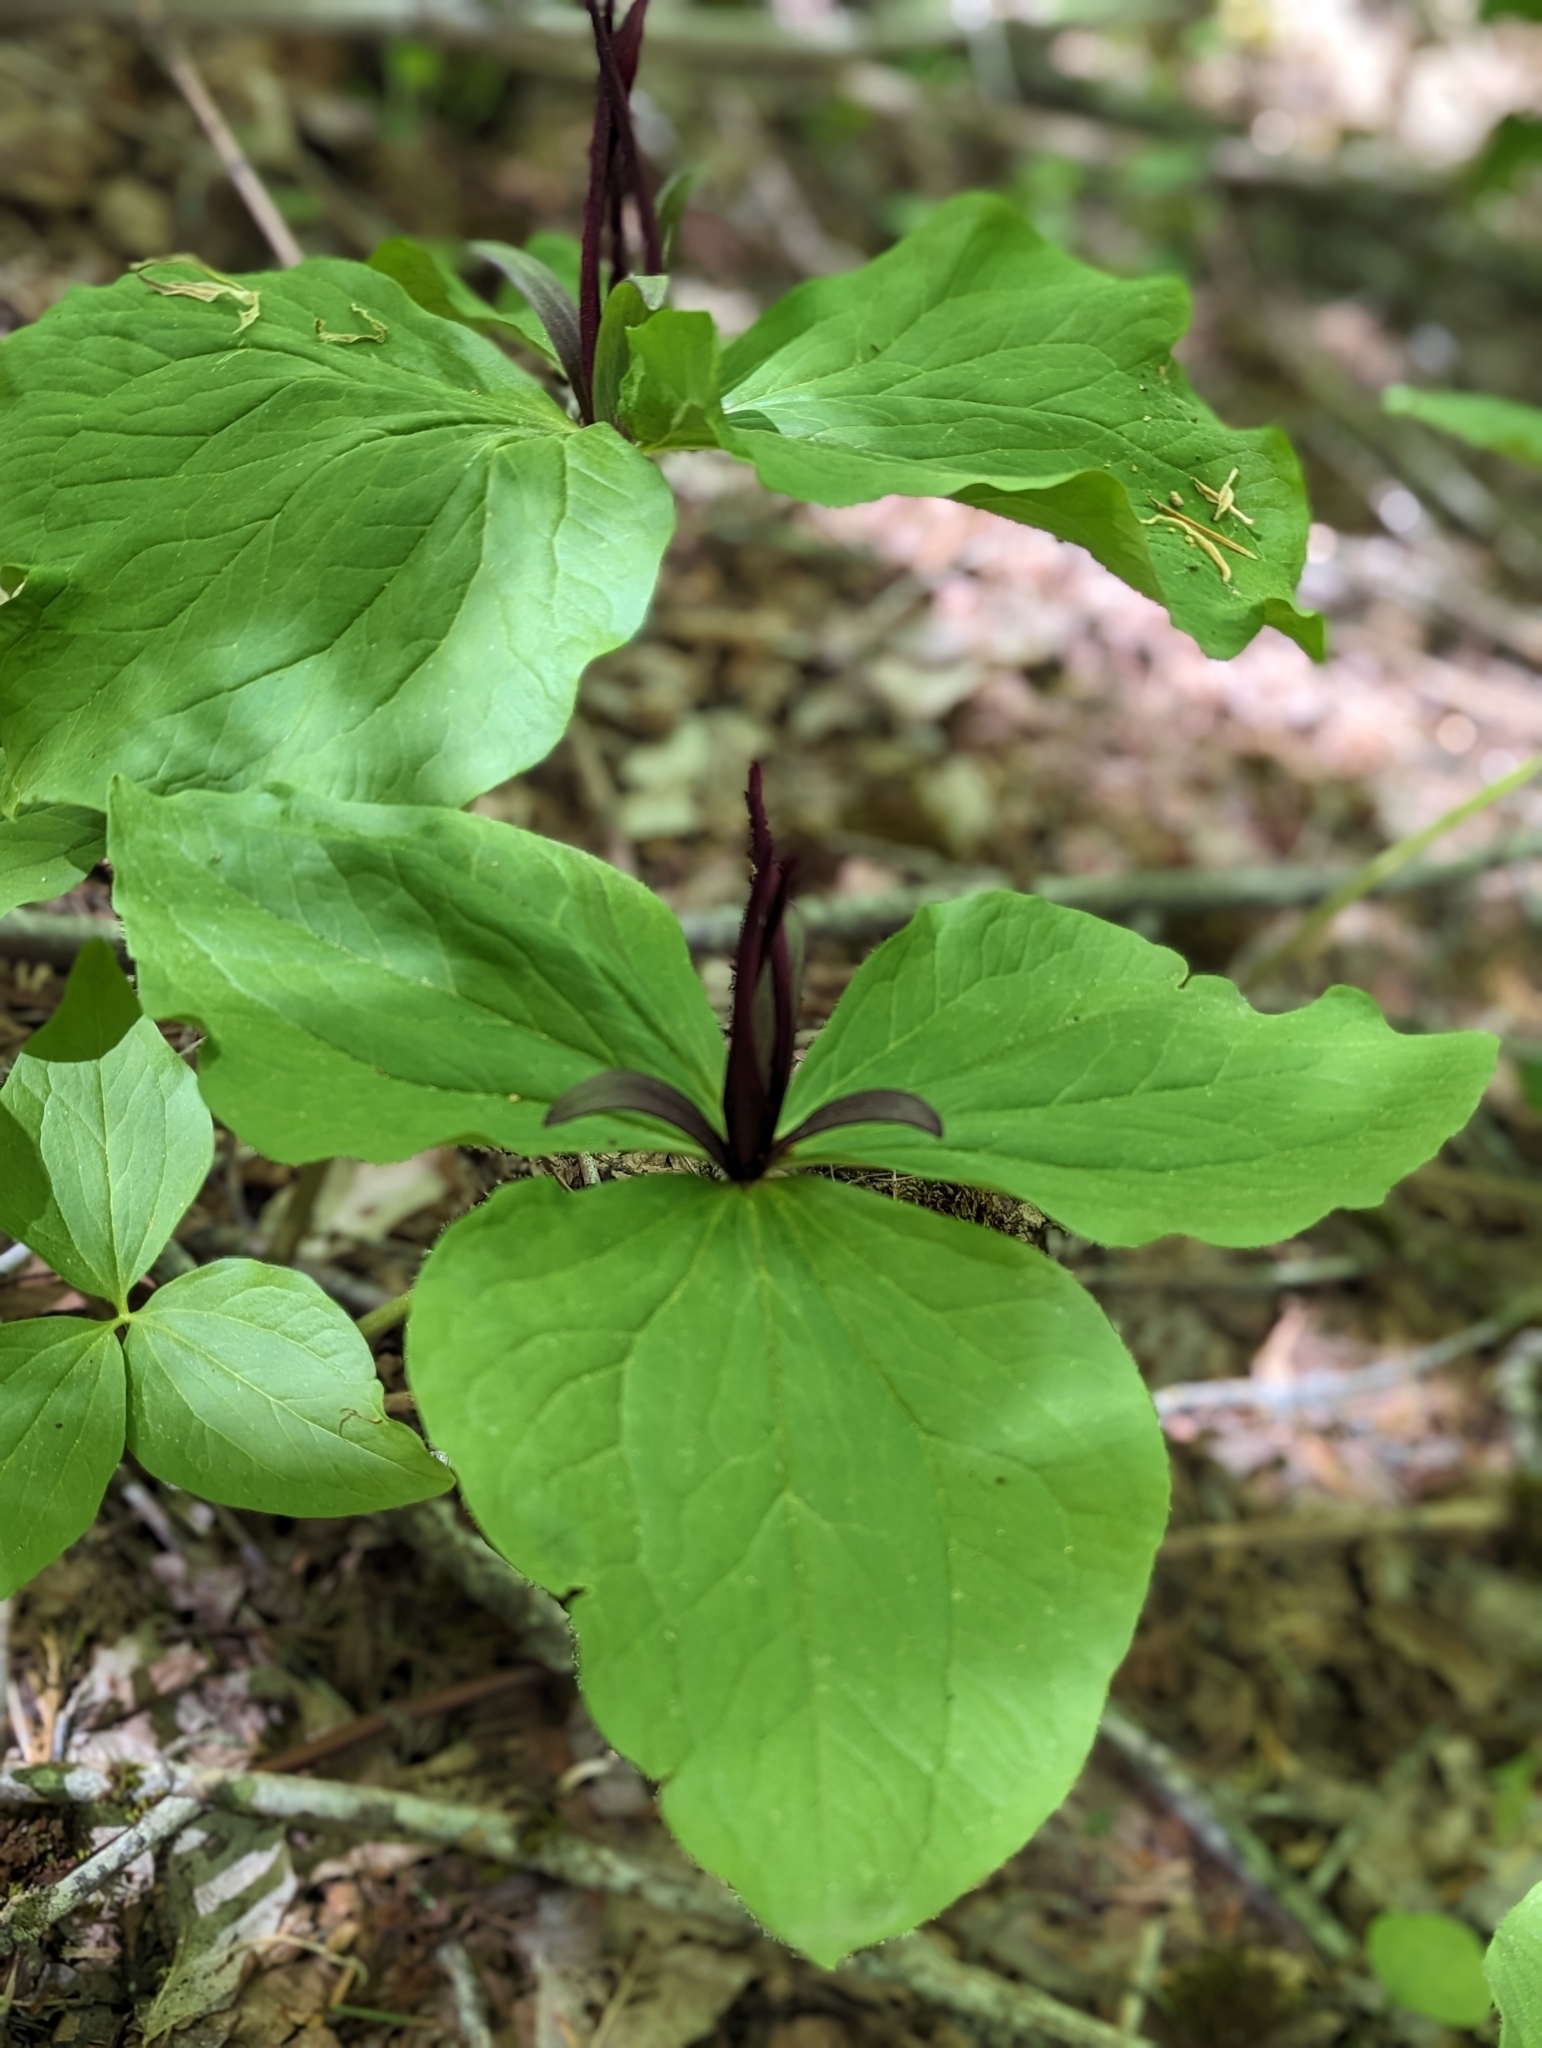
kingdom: Plantae
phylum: Tracheophyta
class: Liliopsida
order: Liliales
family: Melanthiaceae
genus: Trillium
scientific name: Trillium angustipetalum
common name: Narrow-petaled trillium
